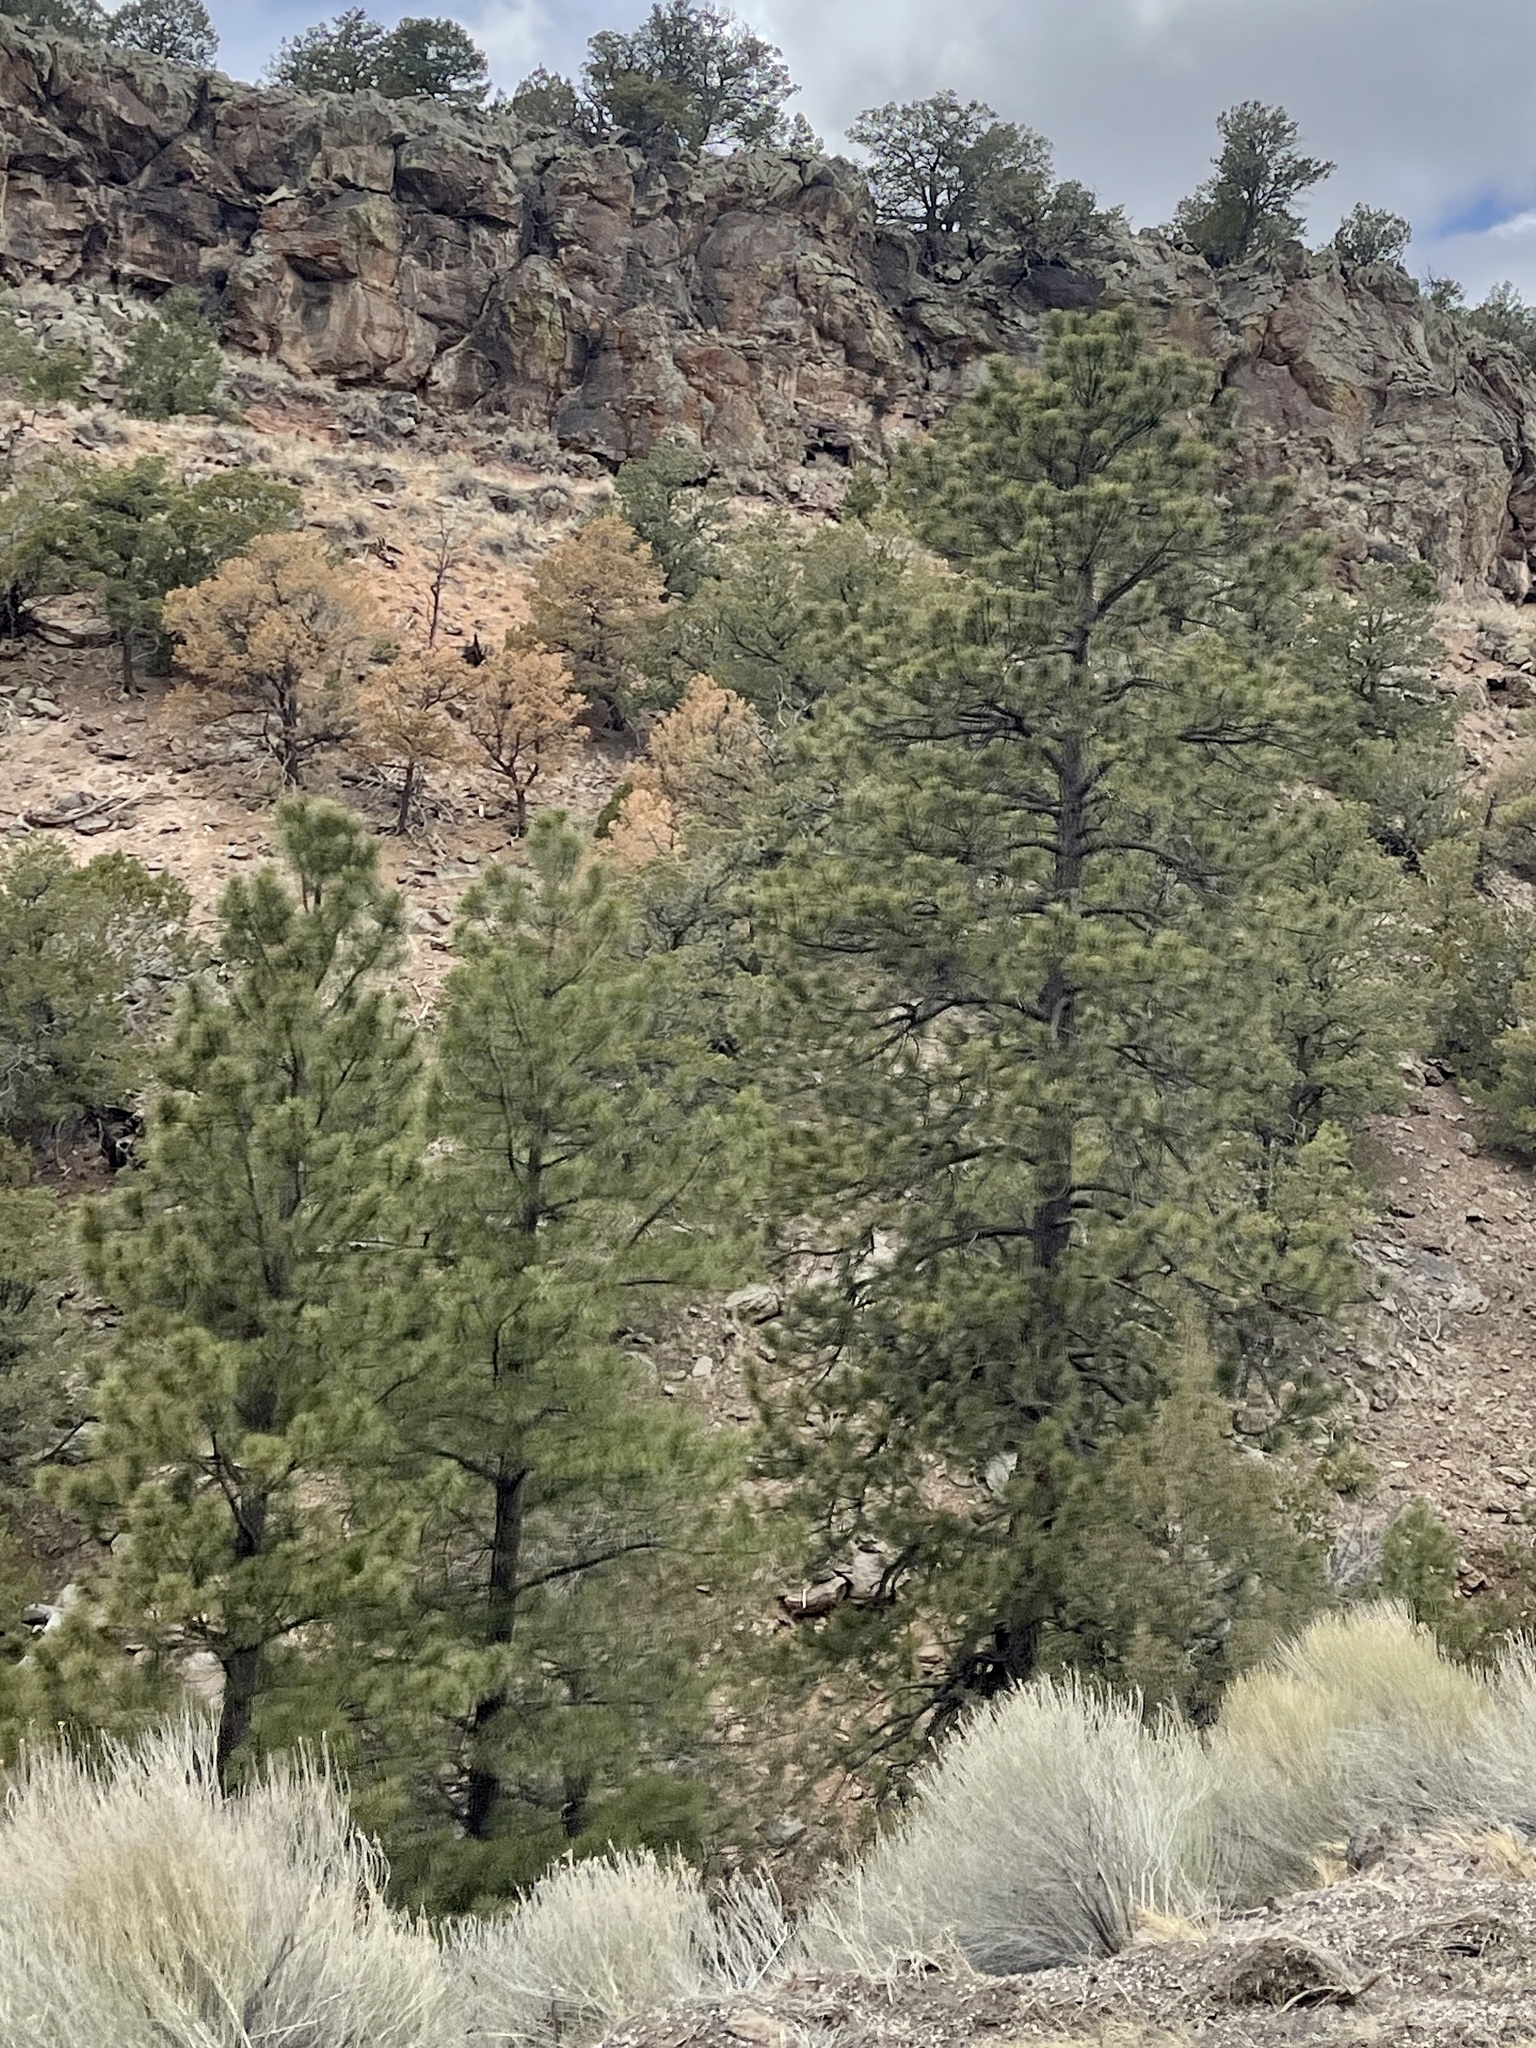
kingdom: Plantae
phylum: Tracheophyta
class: Pinopsida
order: Pinales
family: Pinaceae
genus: Pinus
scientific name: Pinus ponderosa
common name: Western yellow-pine
